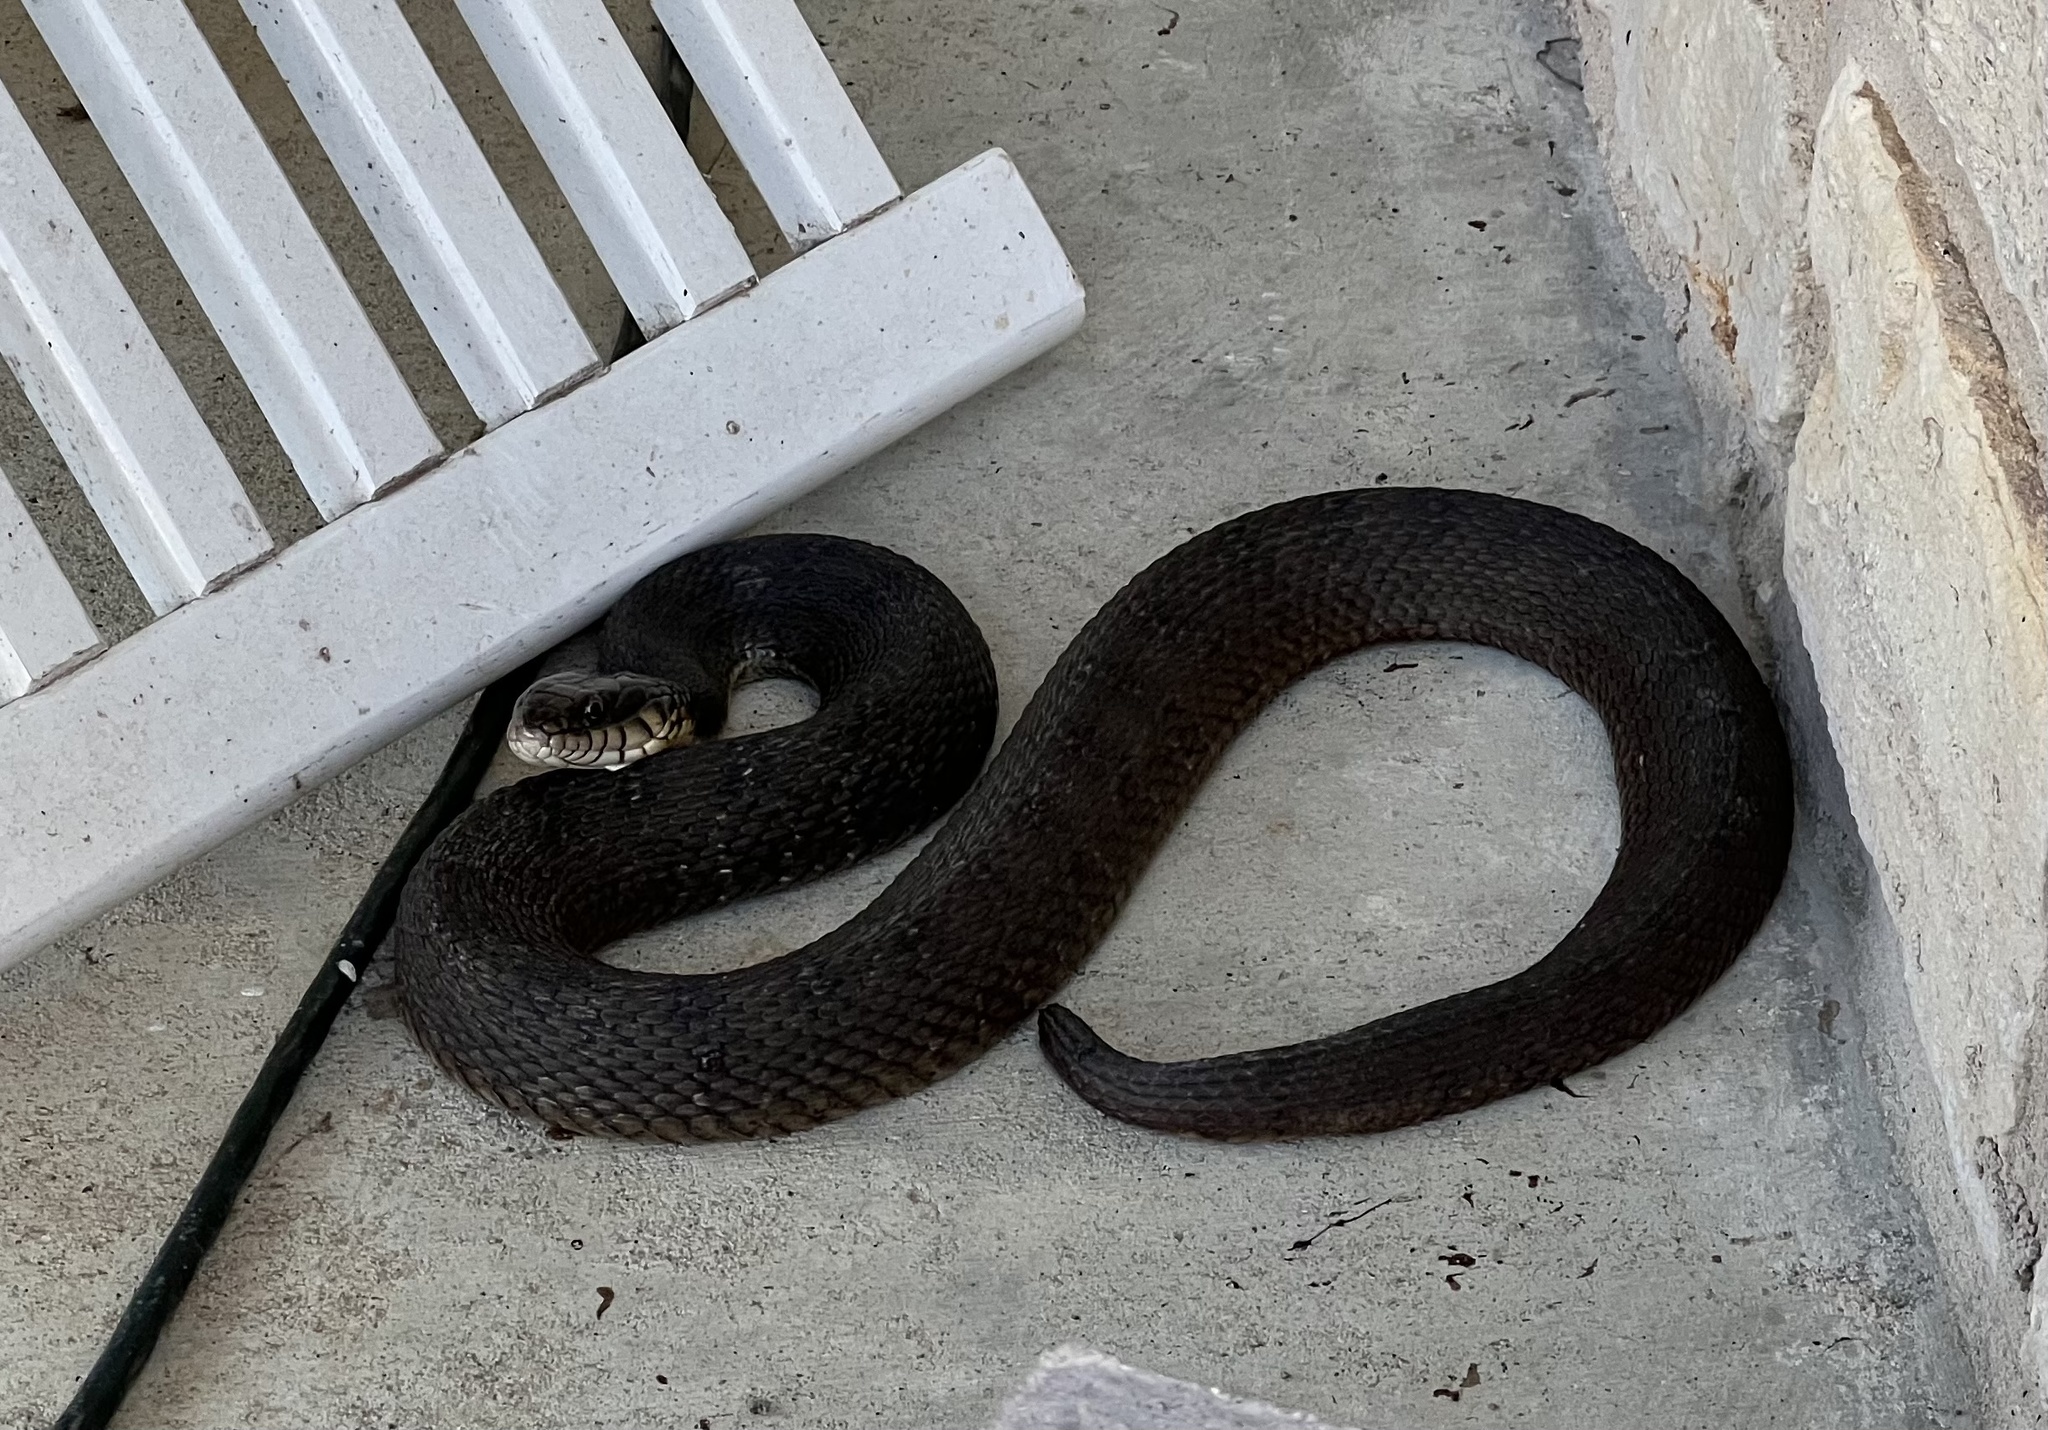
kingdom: Animalia
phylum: Chordata
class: Squamata
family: Colubridae
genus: Nerodia
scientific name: Nerodia erythrogaster
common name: Plainbelly water snake
